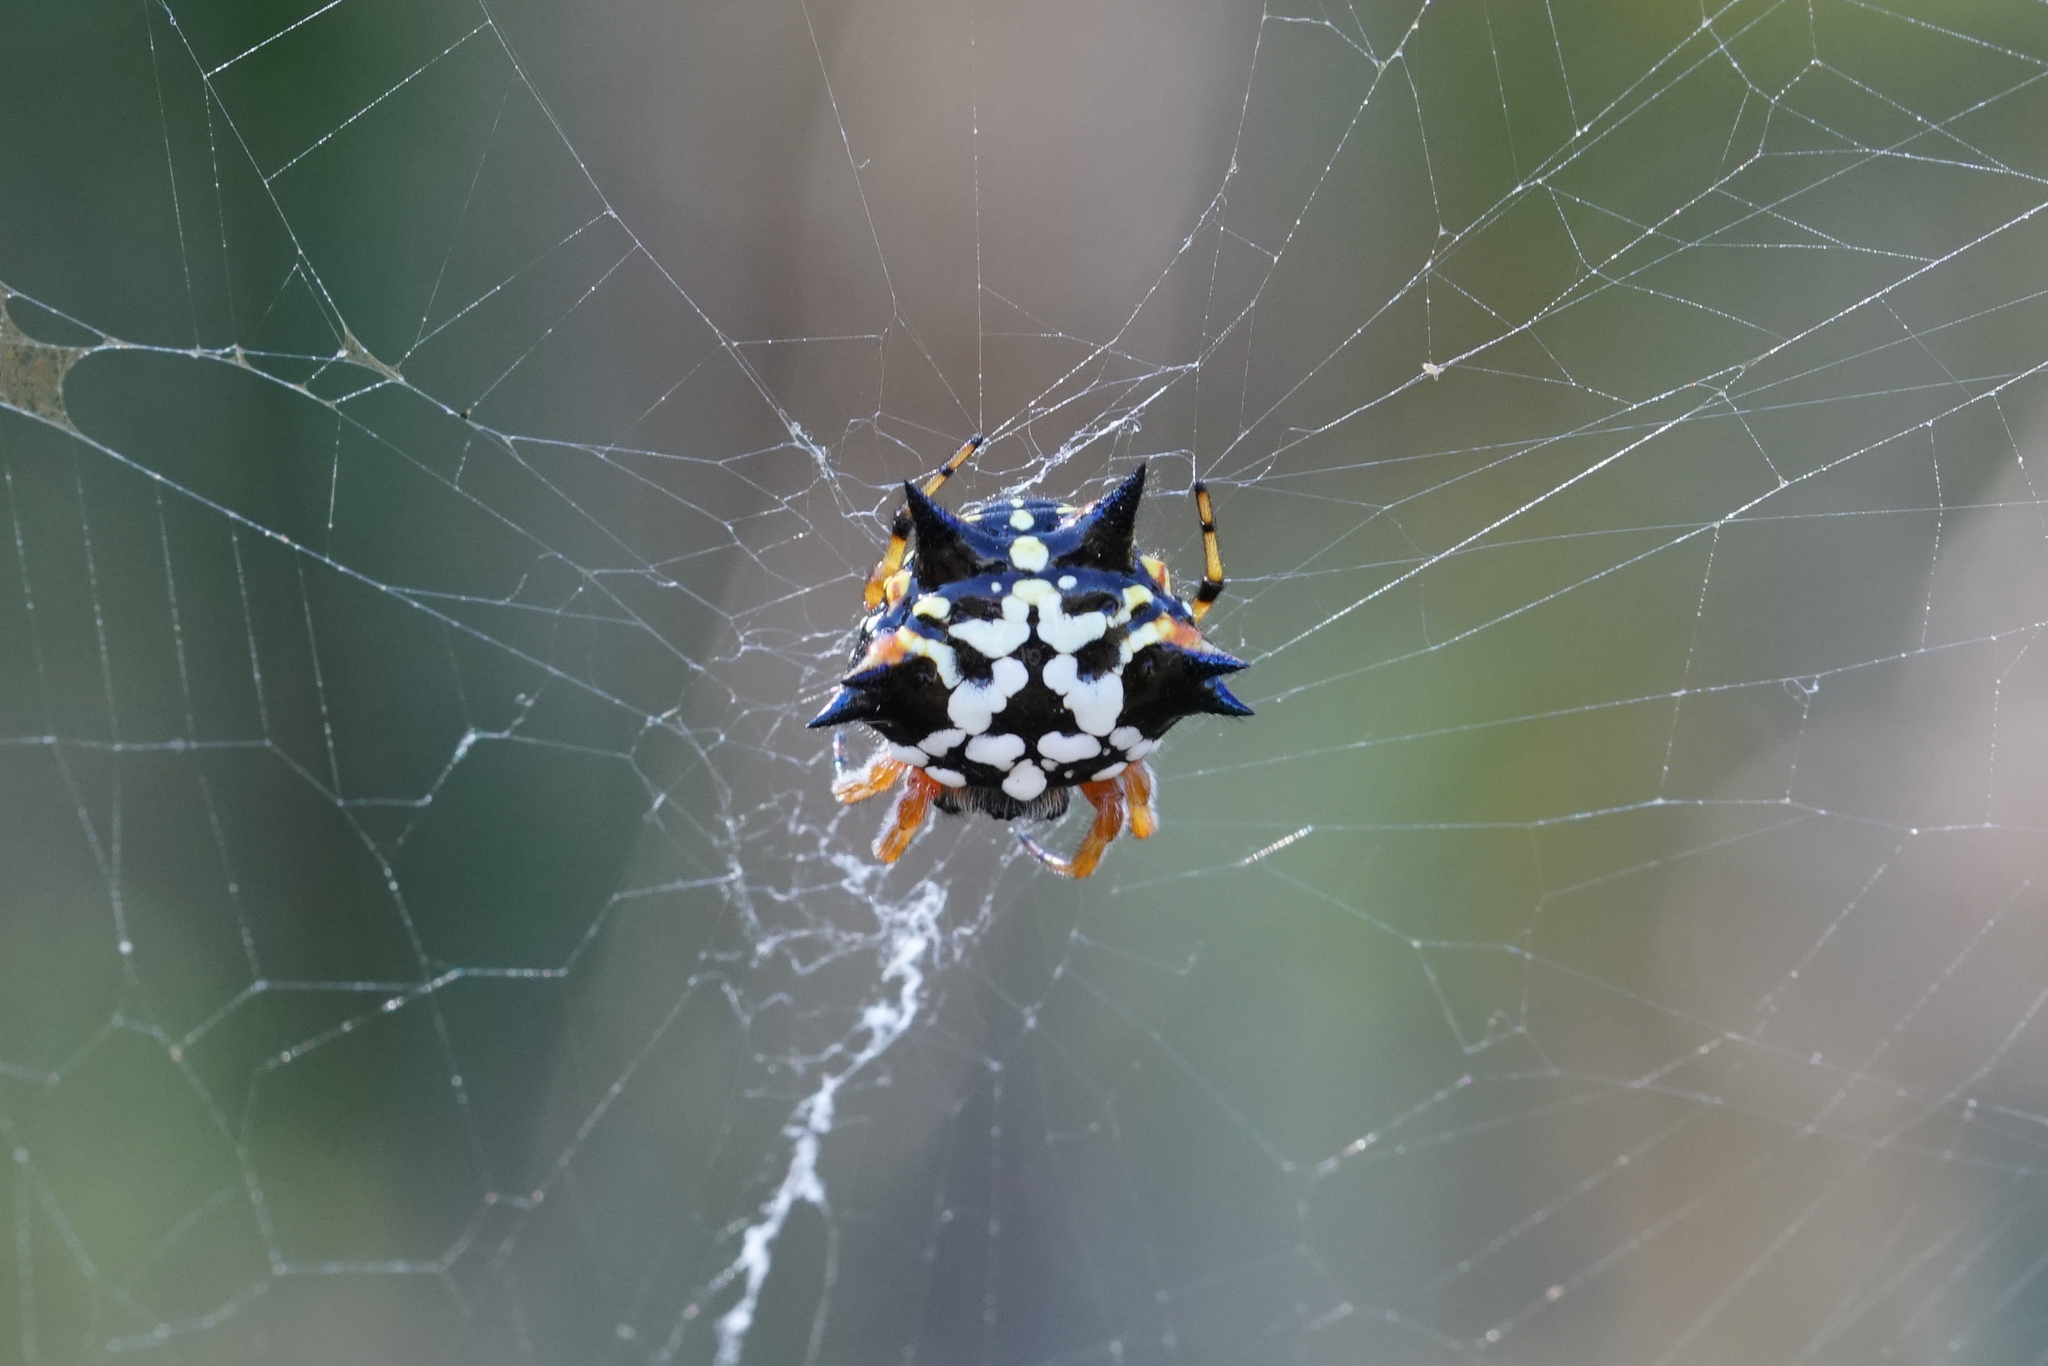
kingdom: Animalia
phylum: Arthropoda
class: Arachnida
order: Araneae
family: Araneidae
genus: Austracantha
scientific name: Austracantha minax
